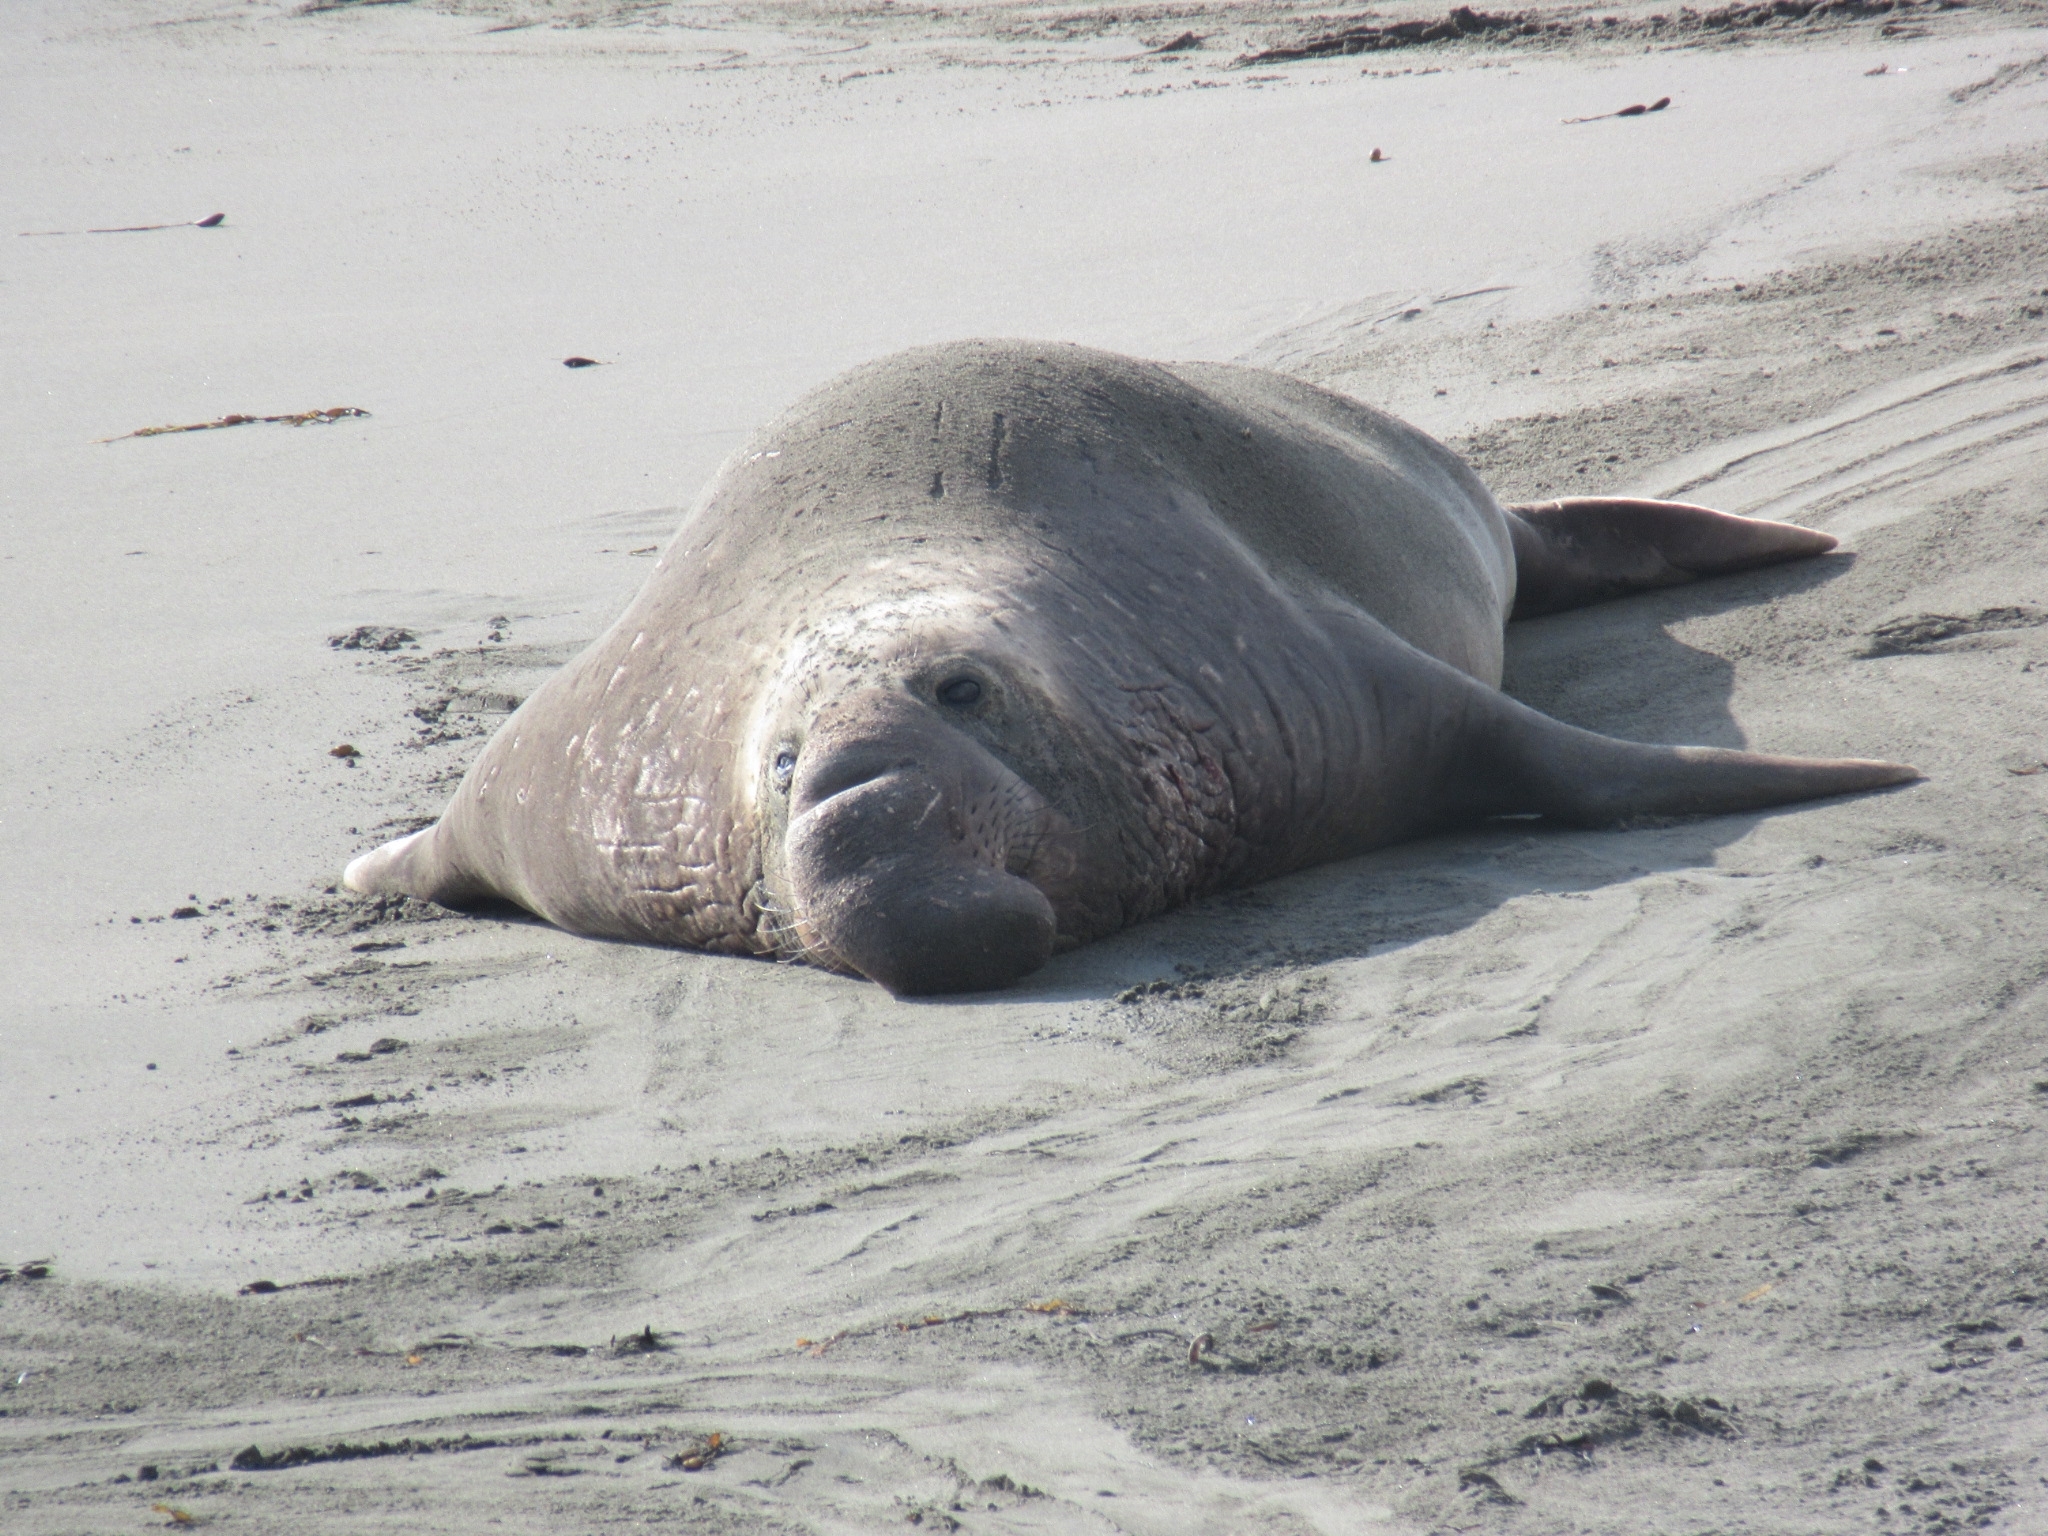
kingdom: Animalia
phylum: Chordata
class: Mammalia
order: Carnivora
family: Phocidae
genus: Mirounga
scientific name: Mirounga angustirostris
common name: Northern elephant seal
